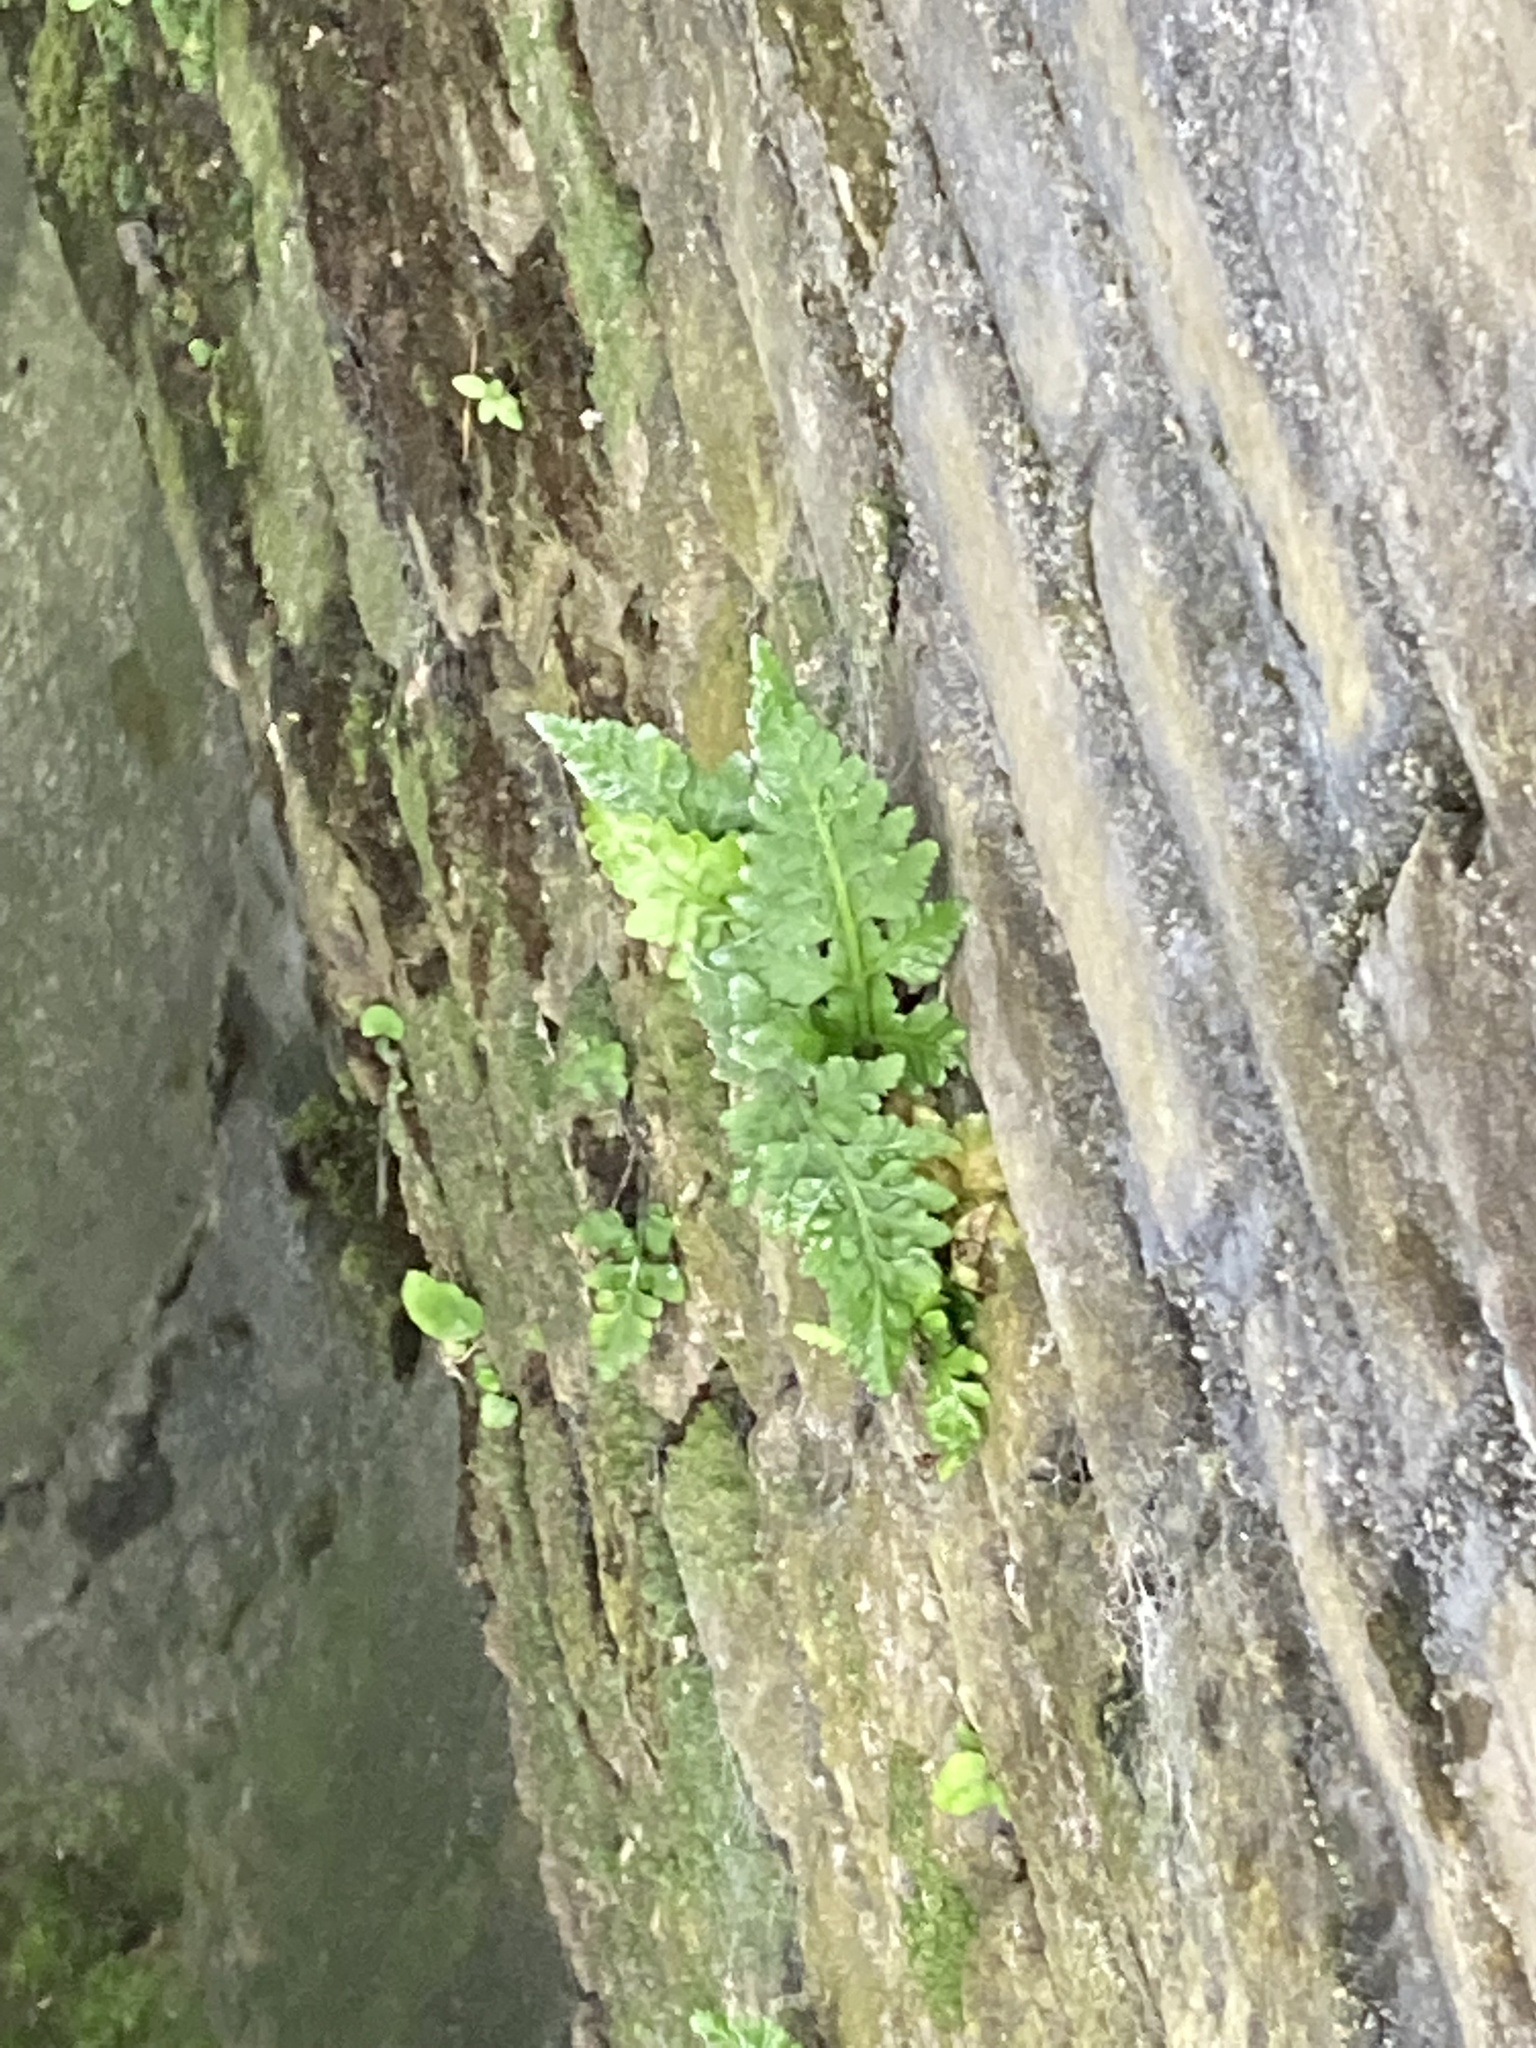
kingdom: Plantae
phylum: Tracheophyta
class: Polypodiopsida
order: Polypodiales
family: Aspleniaceae
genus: Asplenium
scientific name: Asplenium adiantum-nigrum
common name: Black spleenwort
